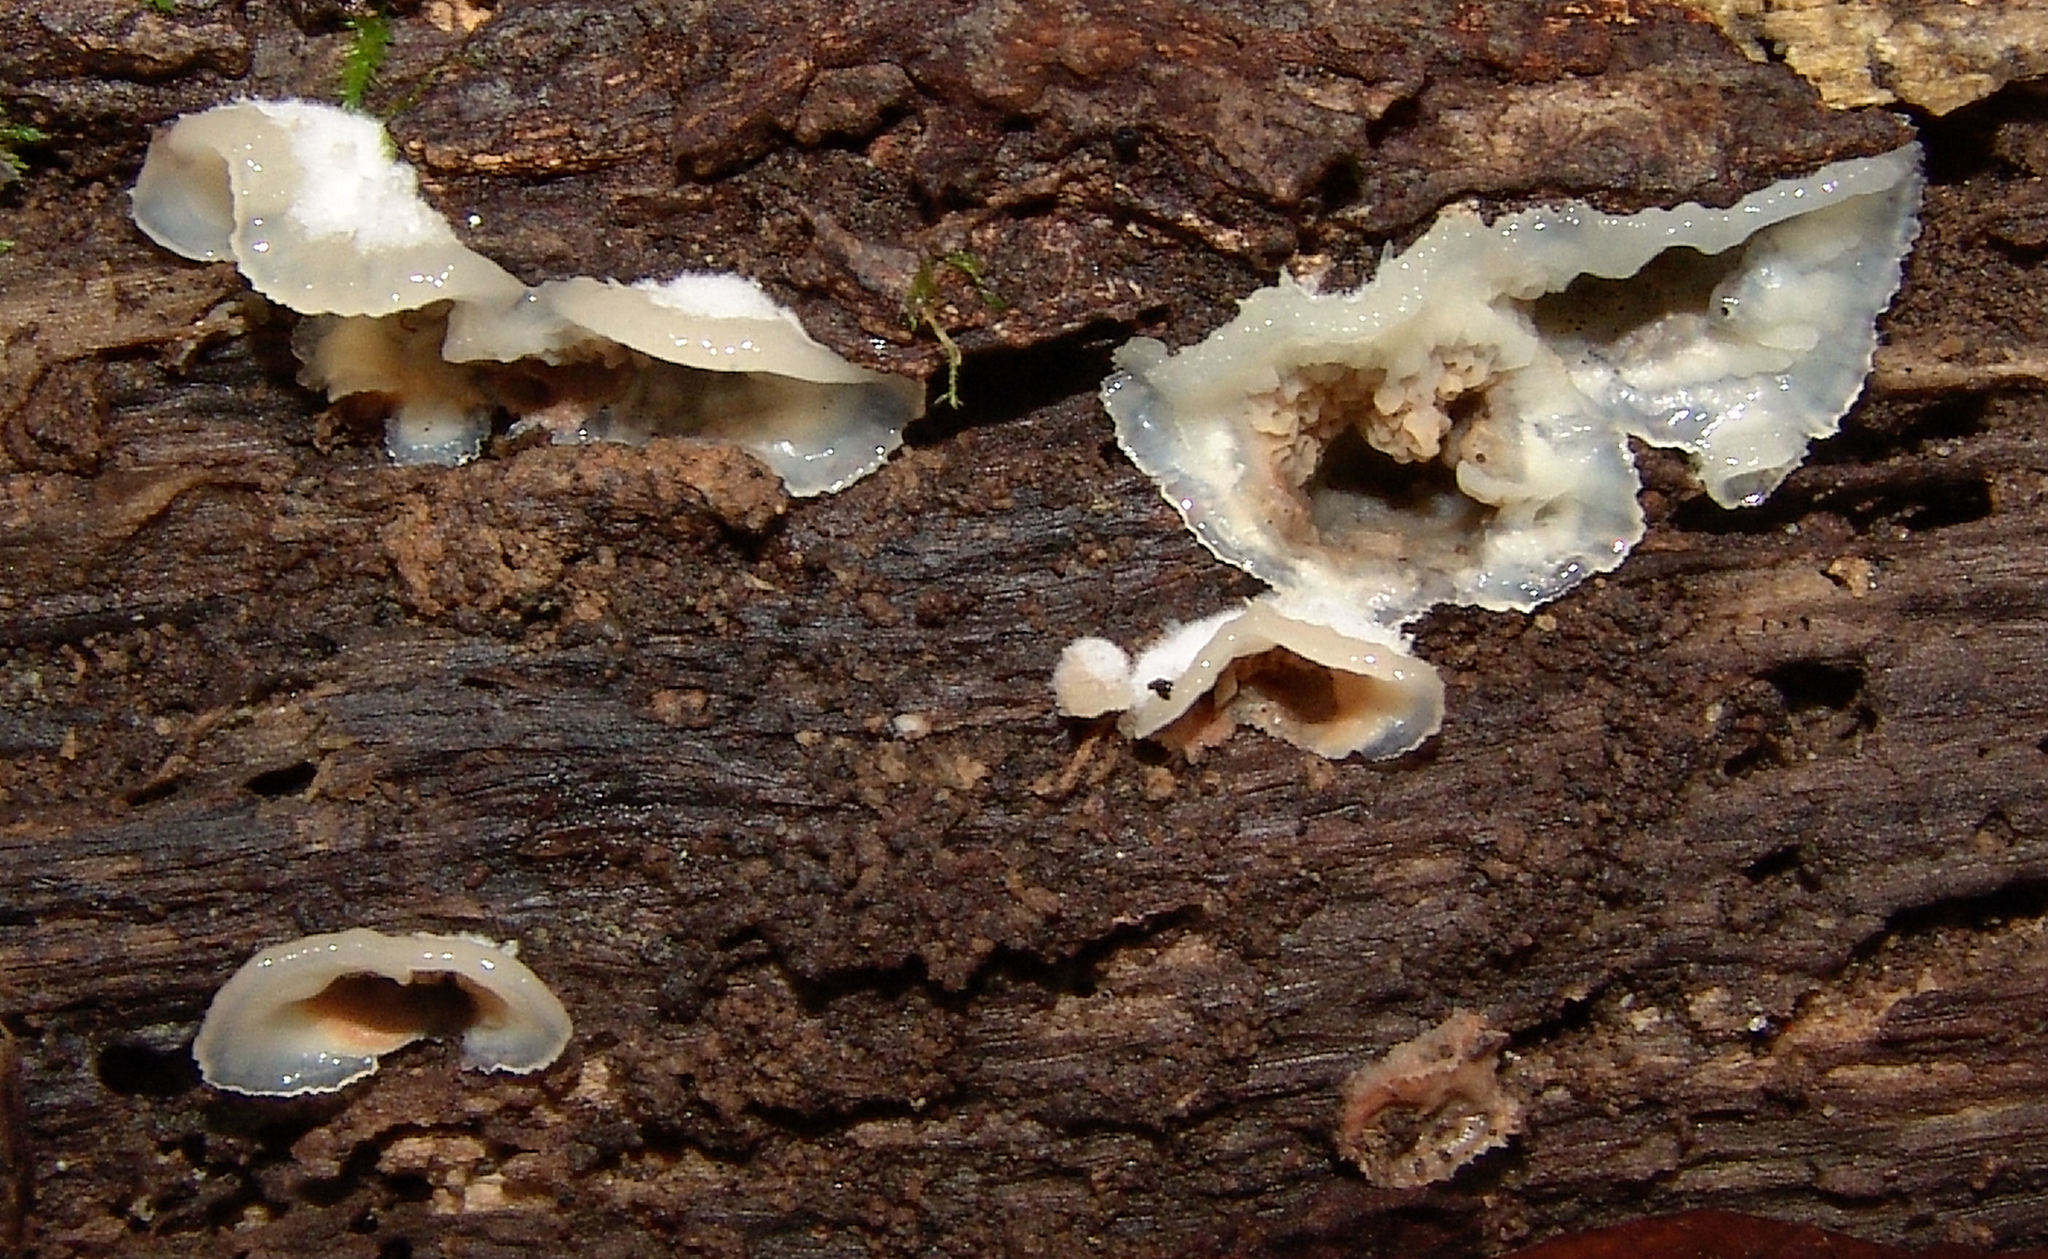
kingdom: Fungi
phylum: Basidiomycota
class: Agaricomycetes
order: Polyporales
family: Meruliaceae
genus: Phlebia
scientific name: Phlebia tremellosa
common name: Jelly rot
